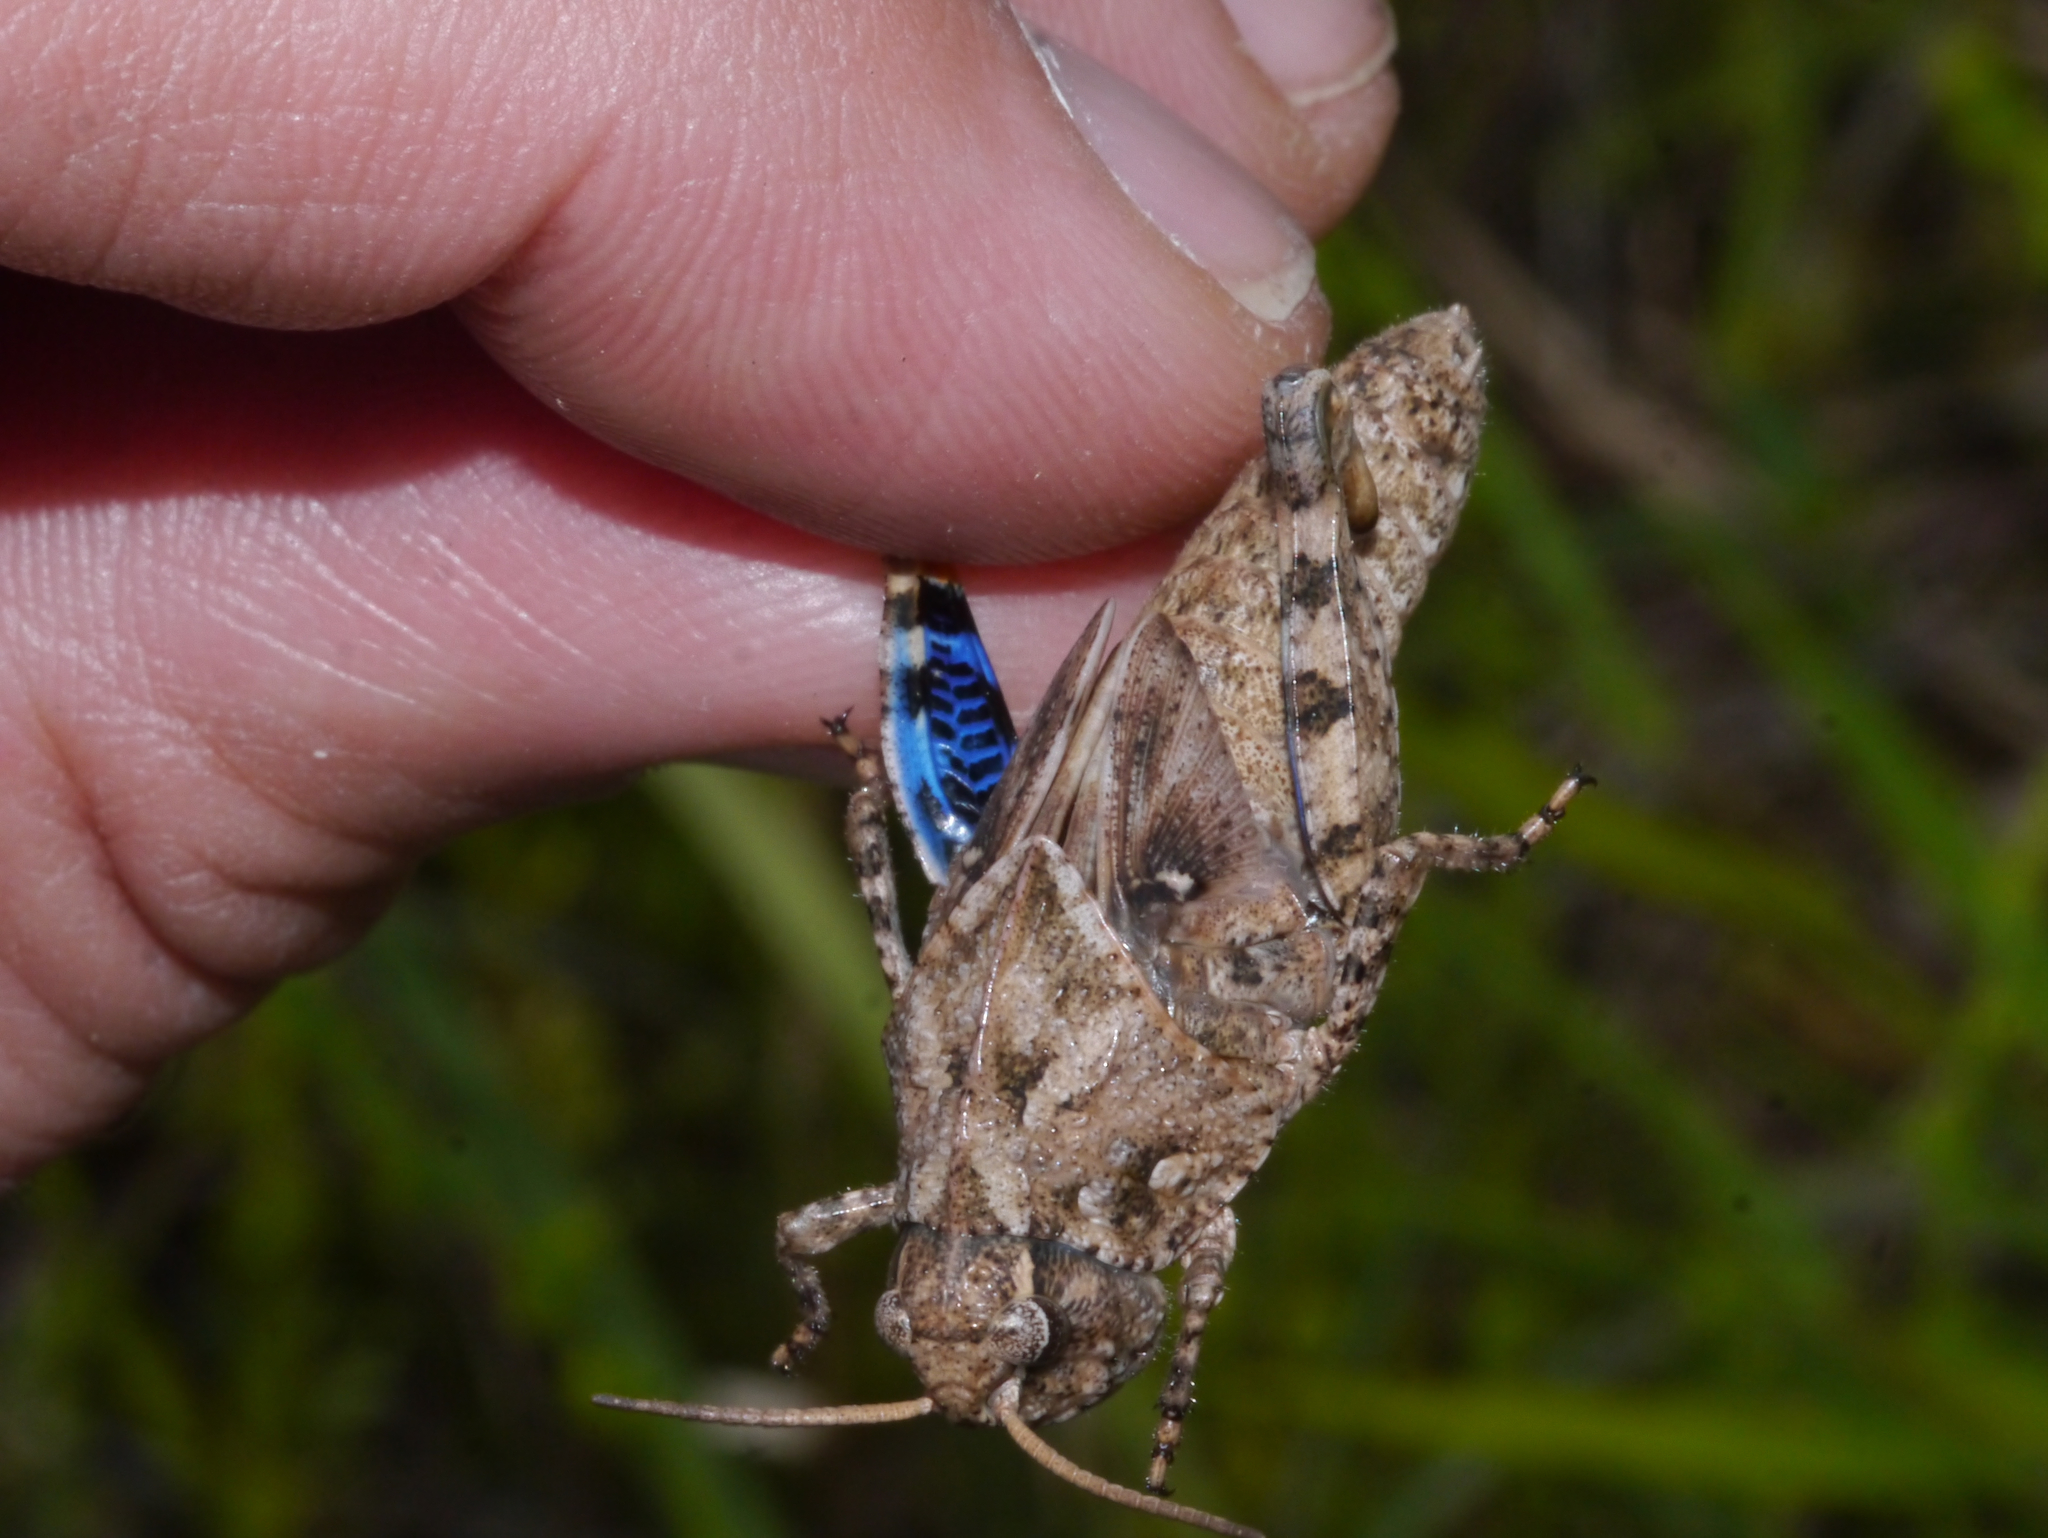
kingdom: Animalia
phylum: Arthropoda
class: Insecta
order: Orthoptera
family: Acrididae
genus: Pardalophora
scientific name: Pardalophora phoenicoptera
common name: Orange-winged grasshopper
